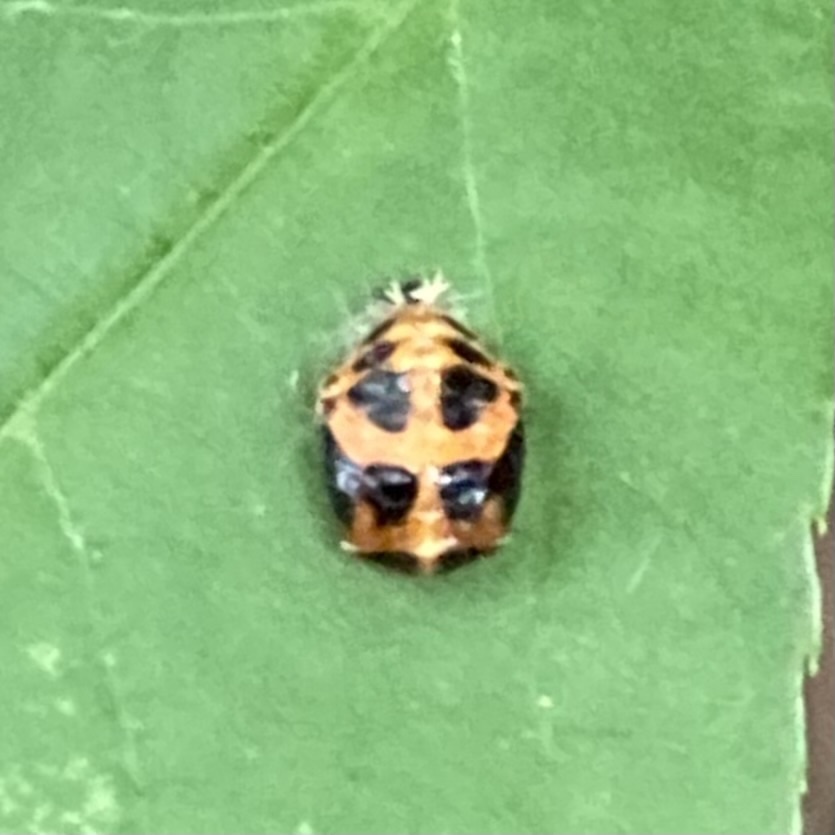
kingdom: Animalia
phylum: Arthropoda
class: Insecta
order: Coleoptera
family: Coccinellidae
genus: Harmonia
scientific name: Harmonia axyridis
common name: Harlequin ladybird
